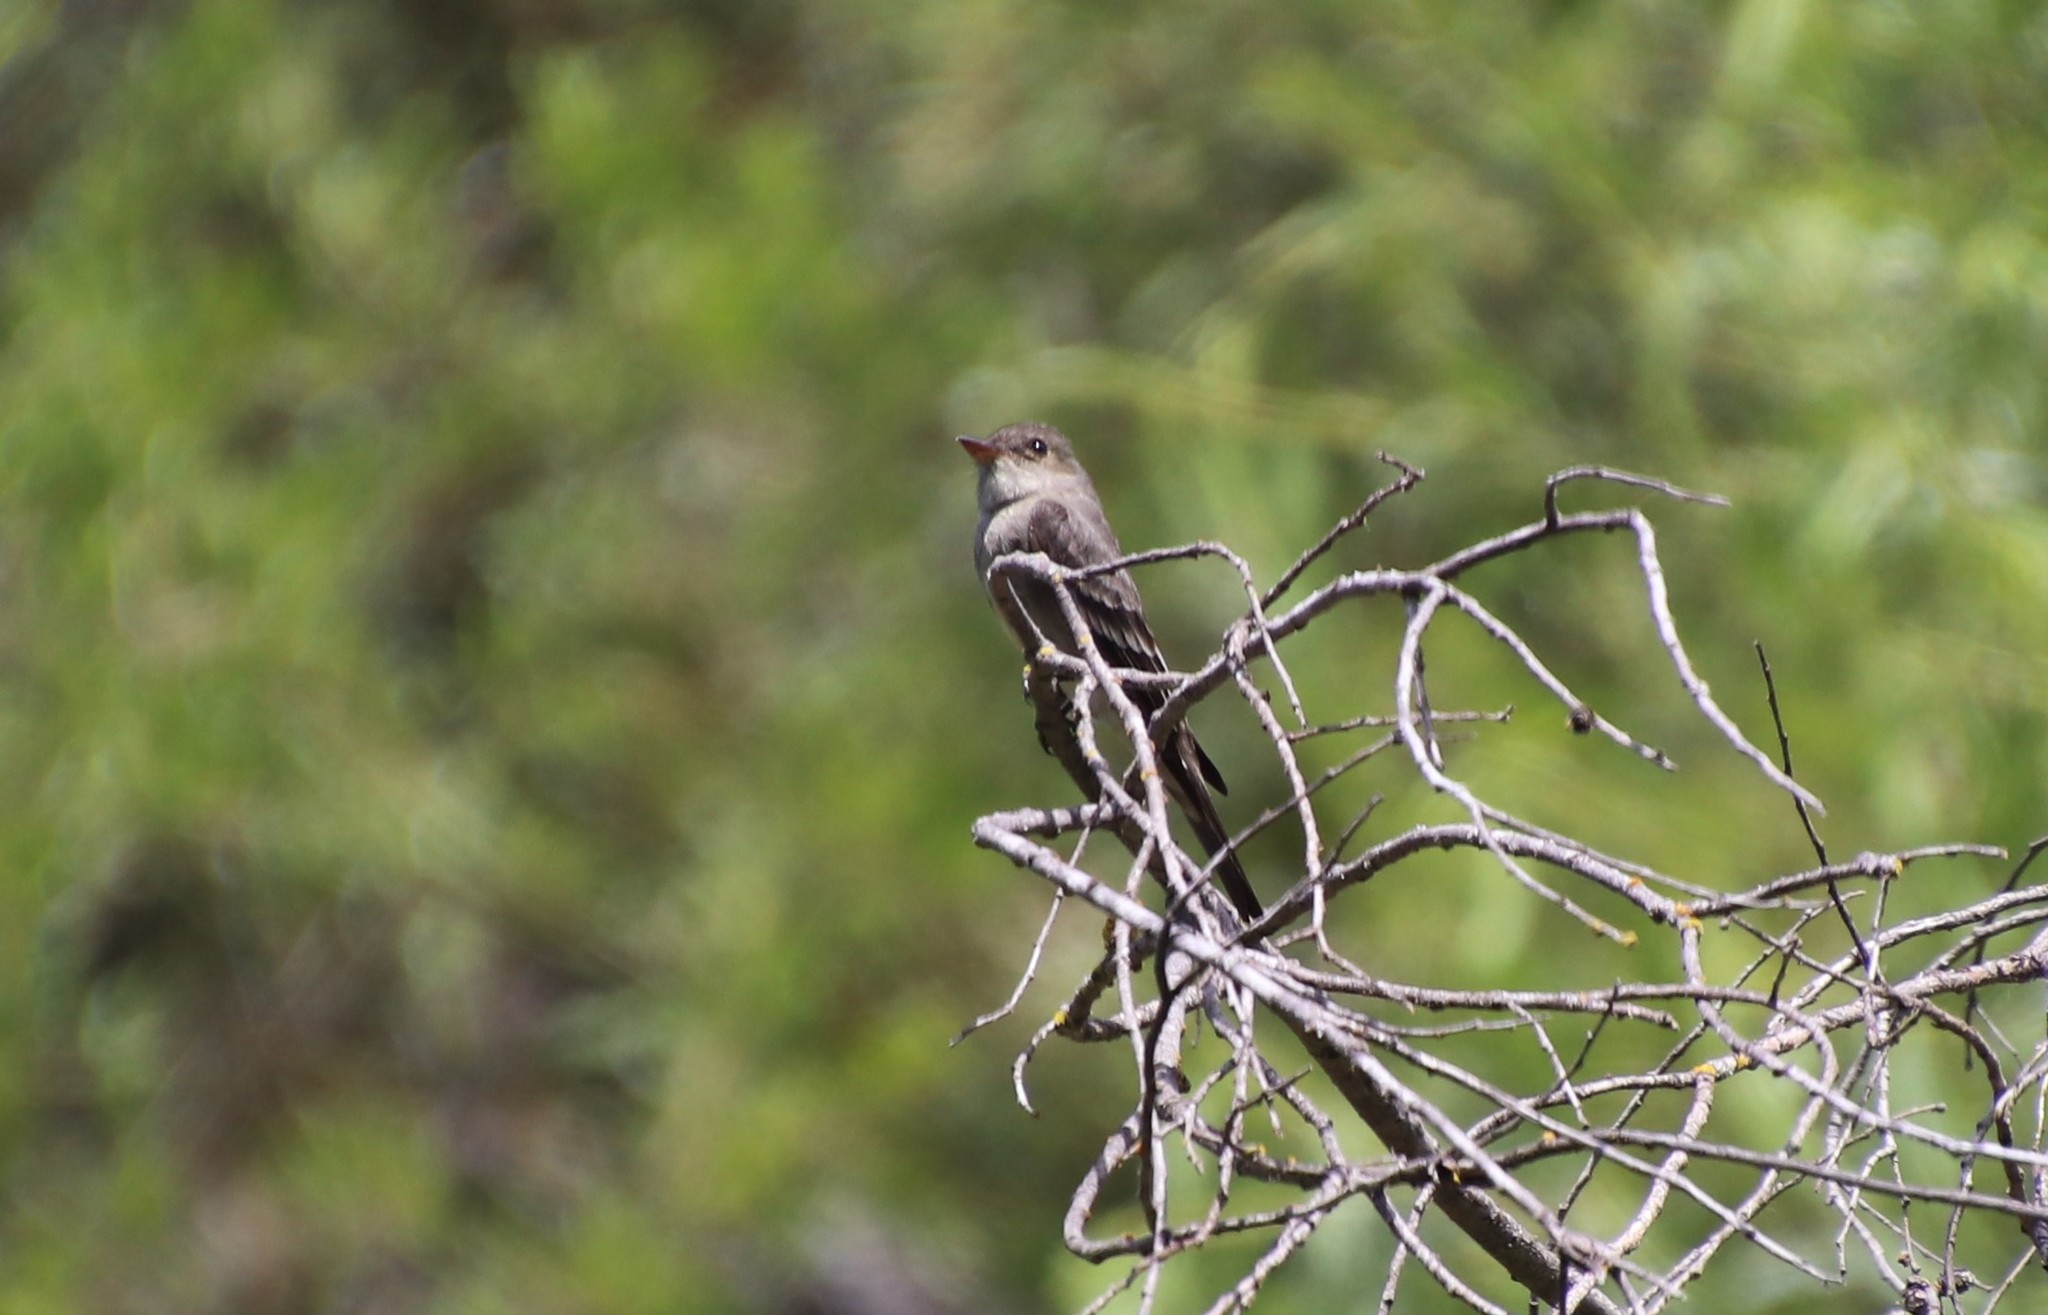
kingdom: Animalia
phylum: Chordata
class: Aves
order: Passeriformes
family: Tyrannidae
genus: Contopus
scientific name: Contopus sordidulus
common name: Western wood-pewee
